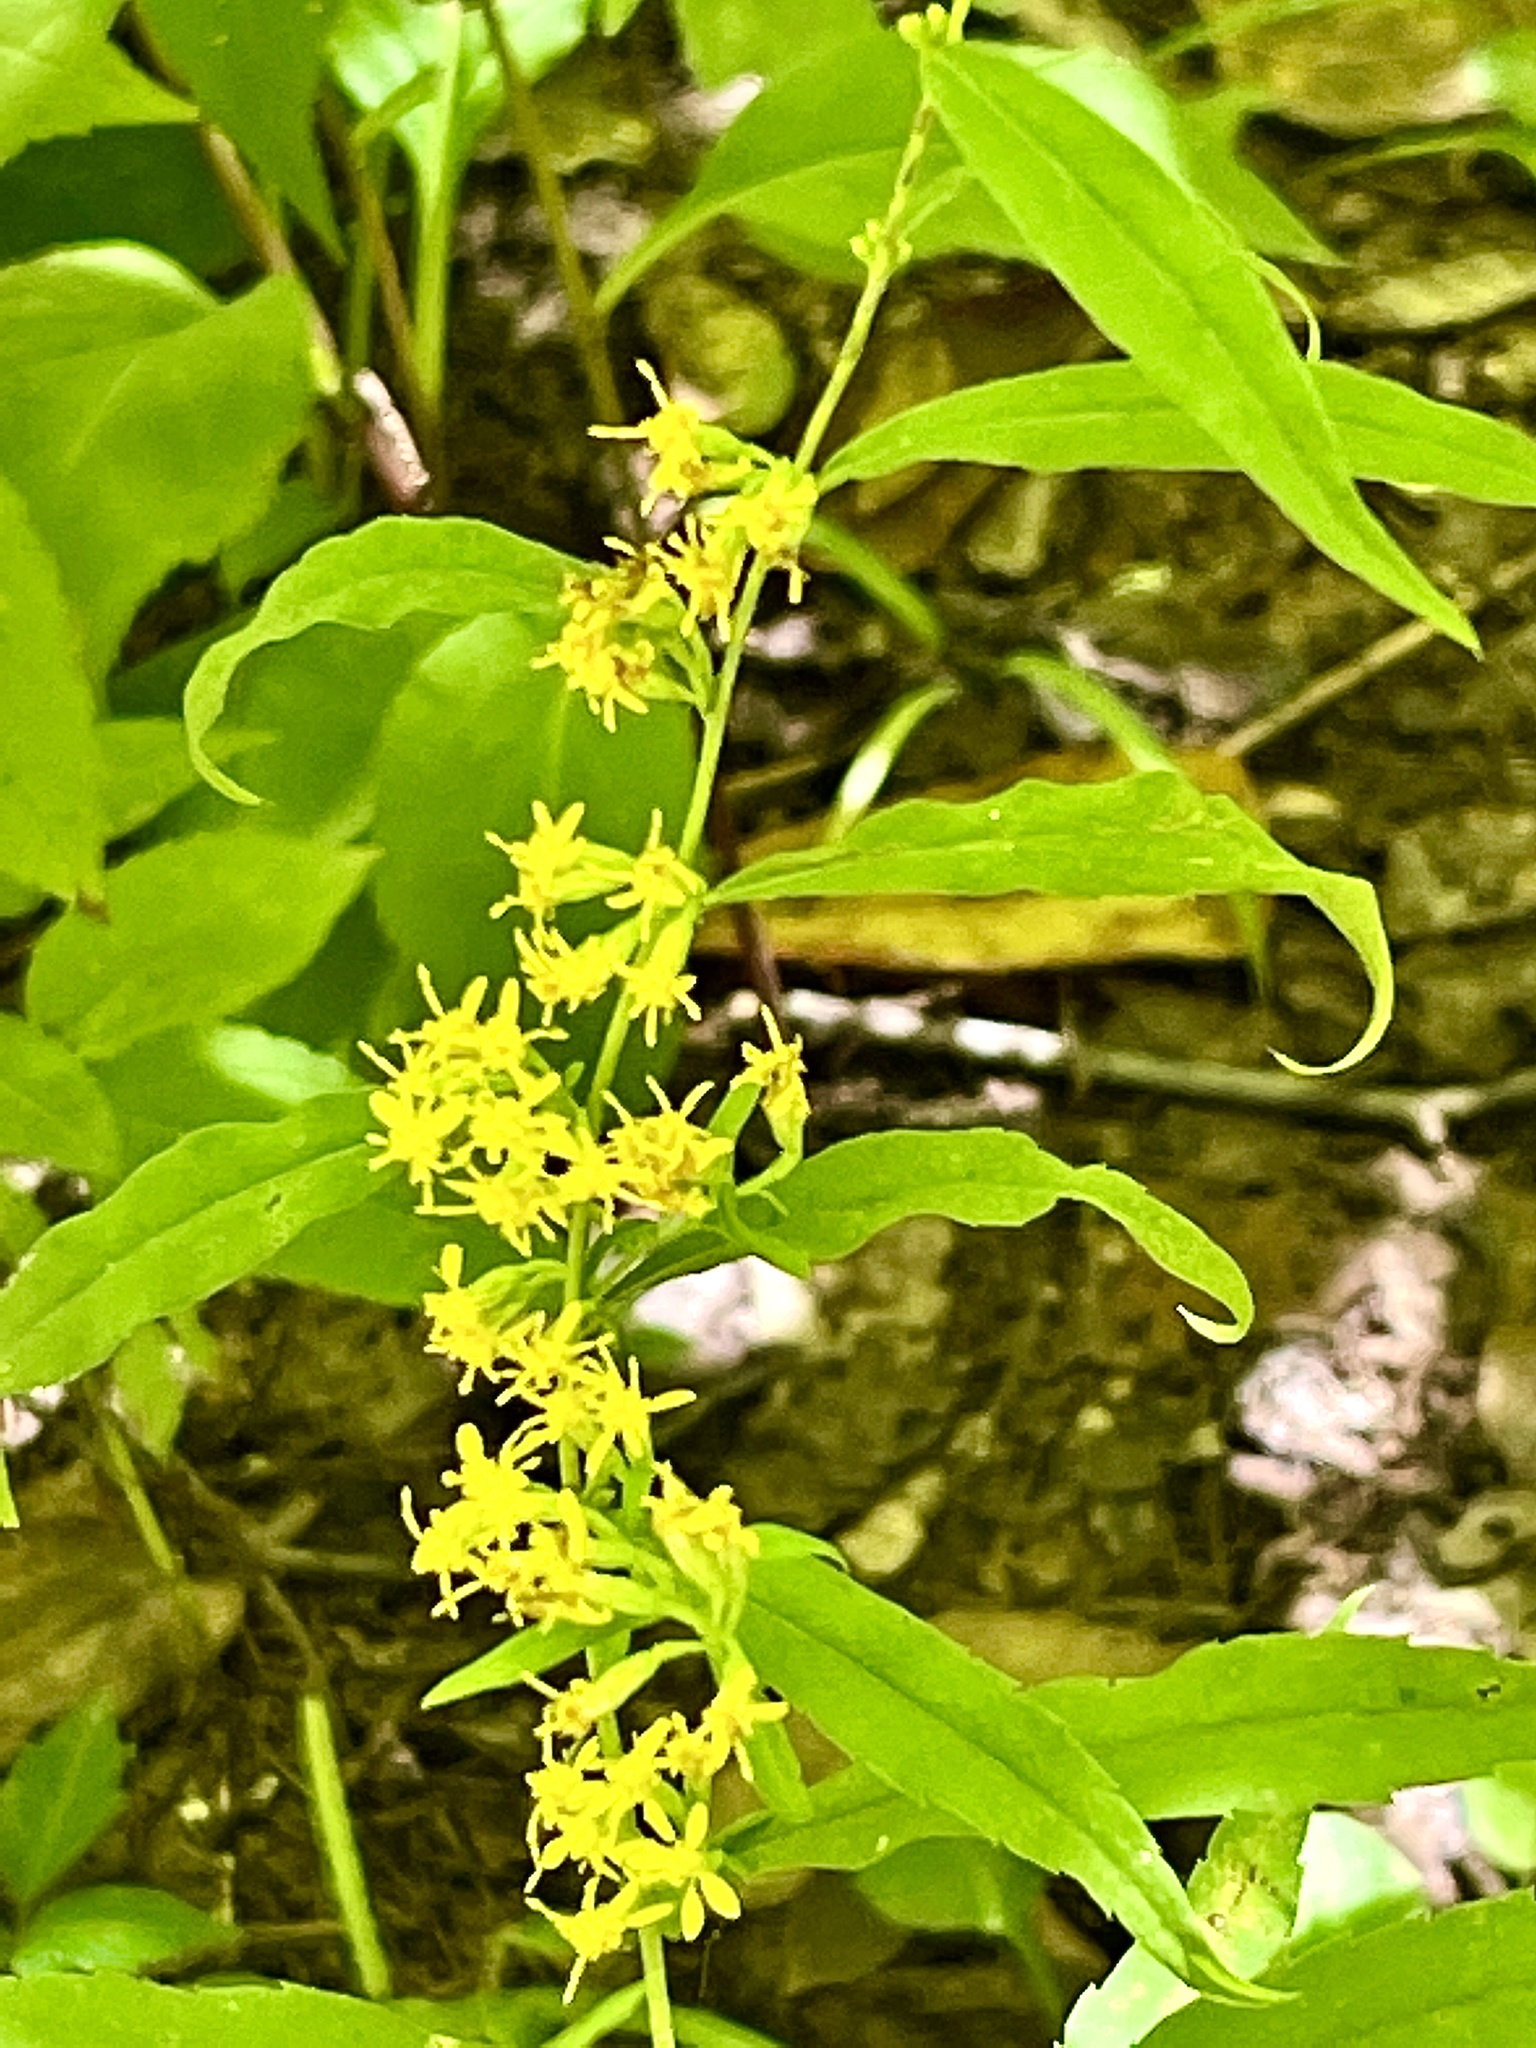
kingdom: Plantae
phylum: Tracheophyta
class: Magnoliopsida
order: Asterales
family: Asteraceae
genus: Solidago
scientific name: Solidago caesia
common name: Woodland goldenrod
